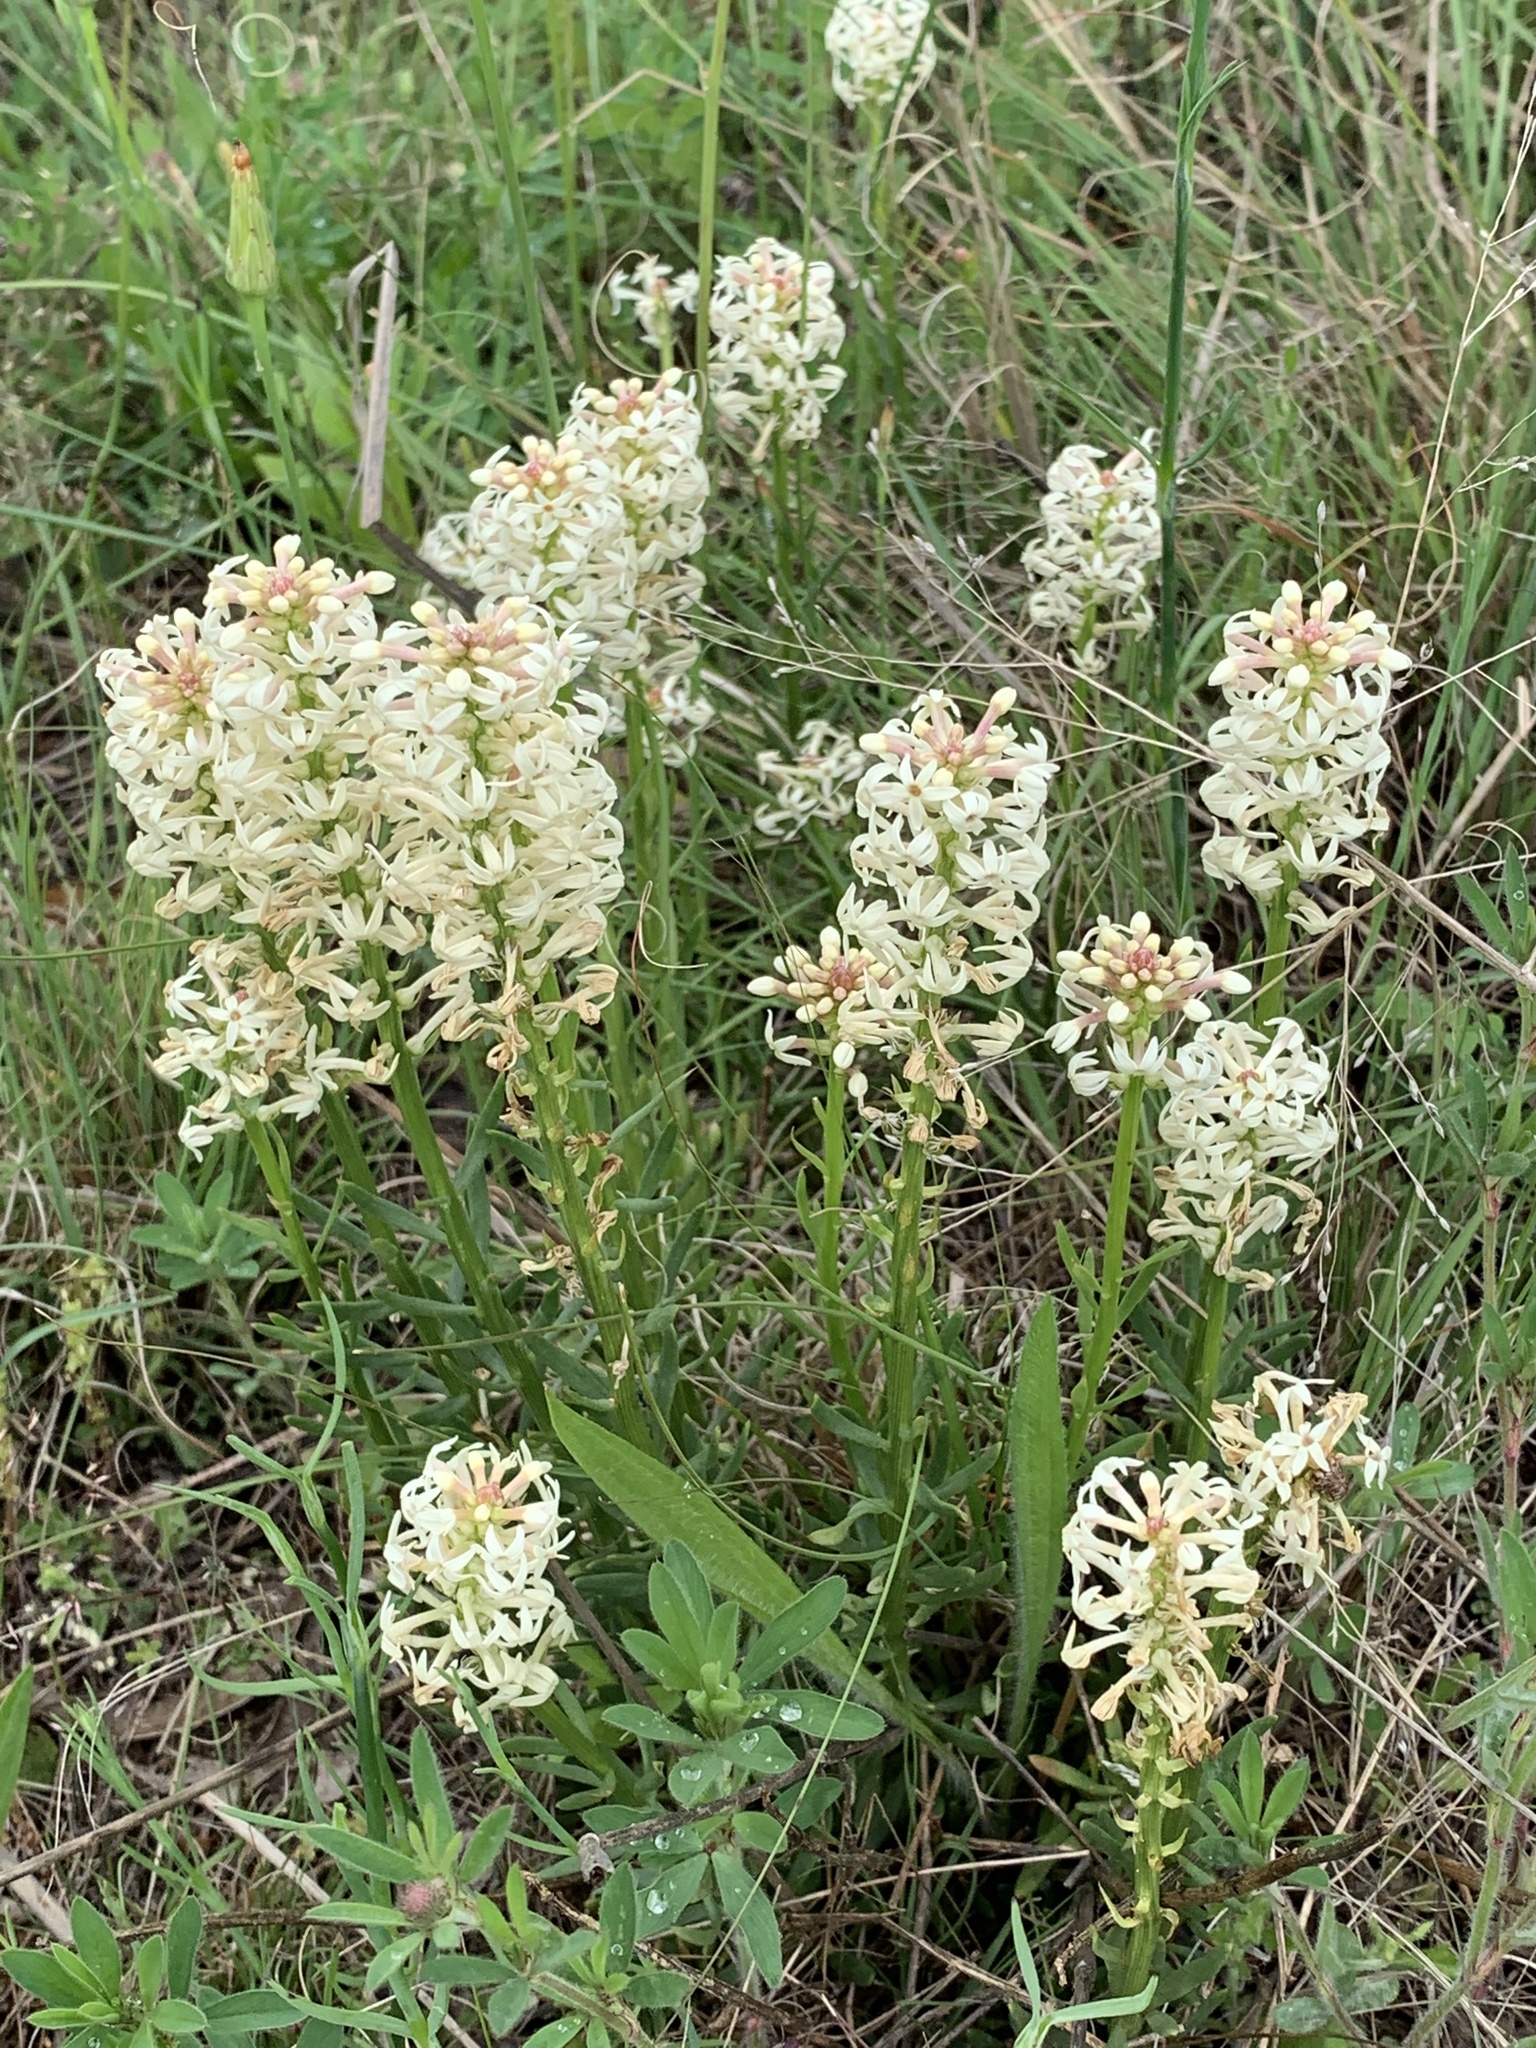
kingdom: Plantae
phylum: Tracheophyta
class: Magnoliopsida
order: Celastrales
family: Celastraceae
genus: Stackhousia
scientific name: Stackhousia monogyna
